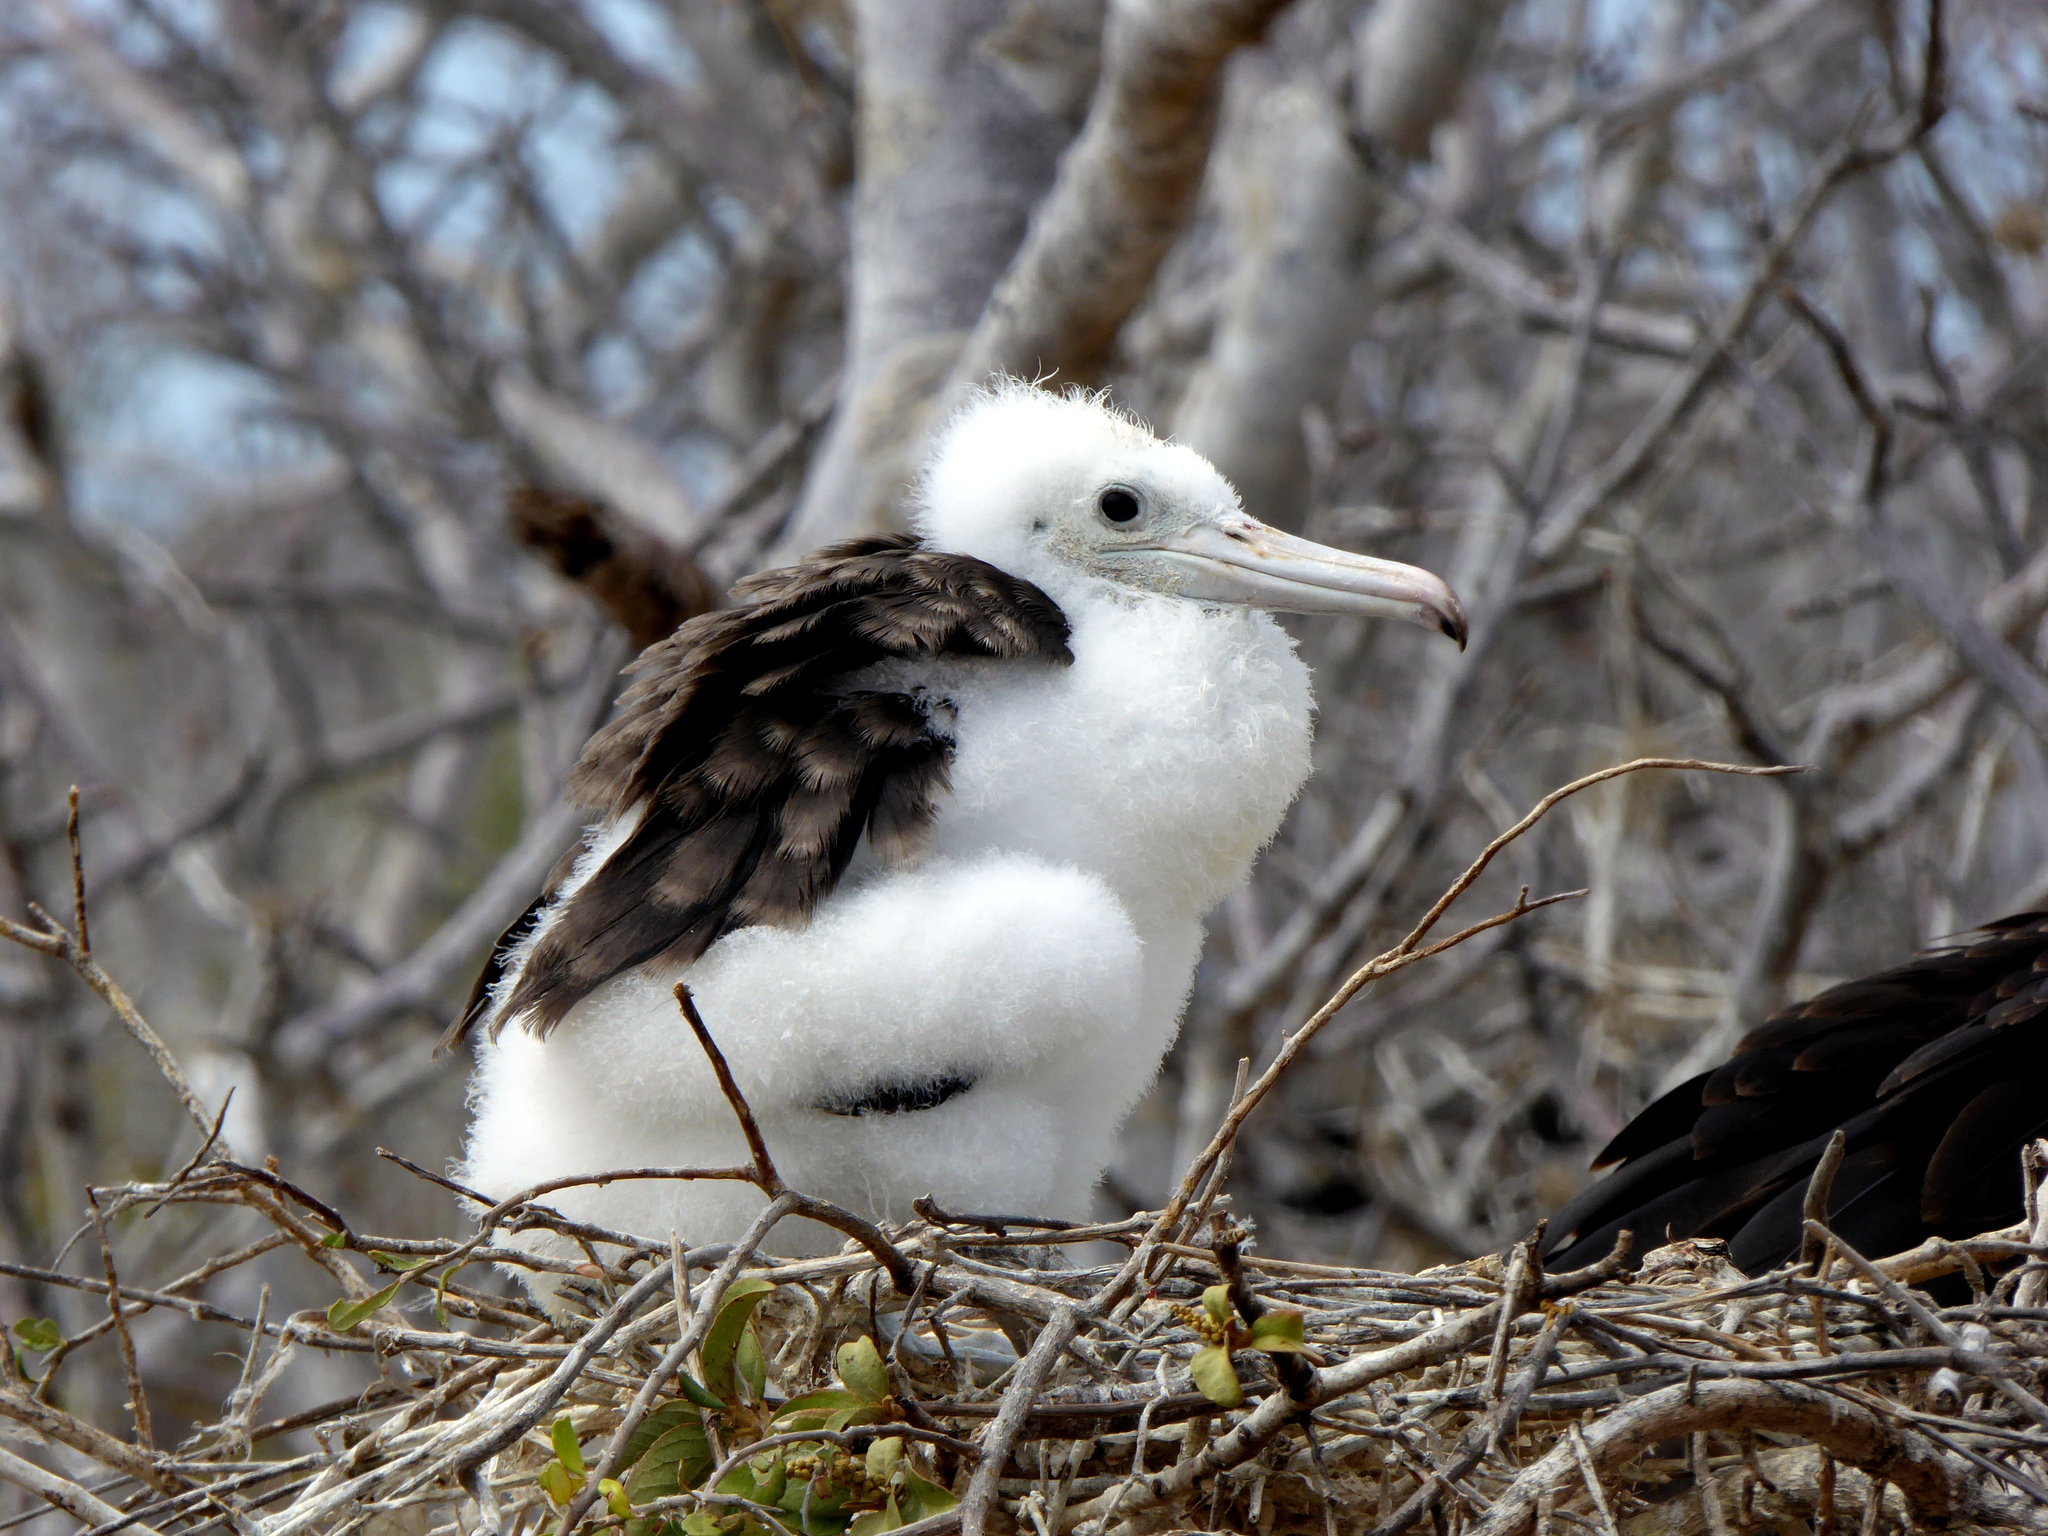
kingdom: Animalia
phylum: Chordata
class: Aves
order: Suliformes
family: Fregatidae
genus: Fregata
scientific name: Fregata minor
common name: Great frigatebird
